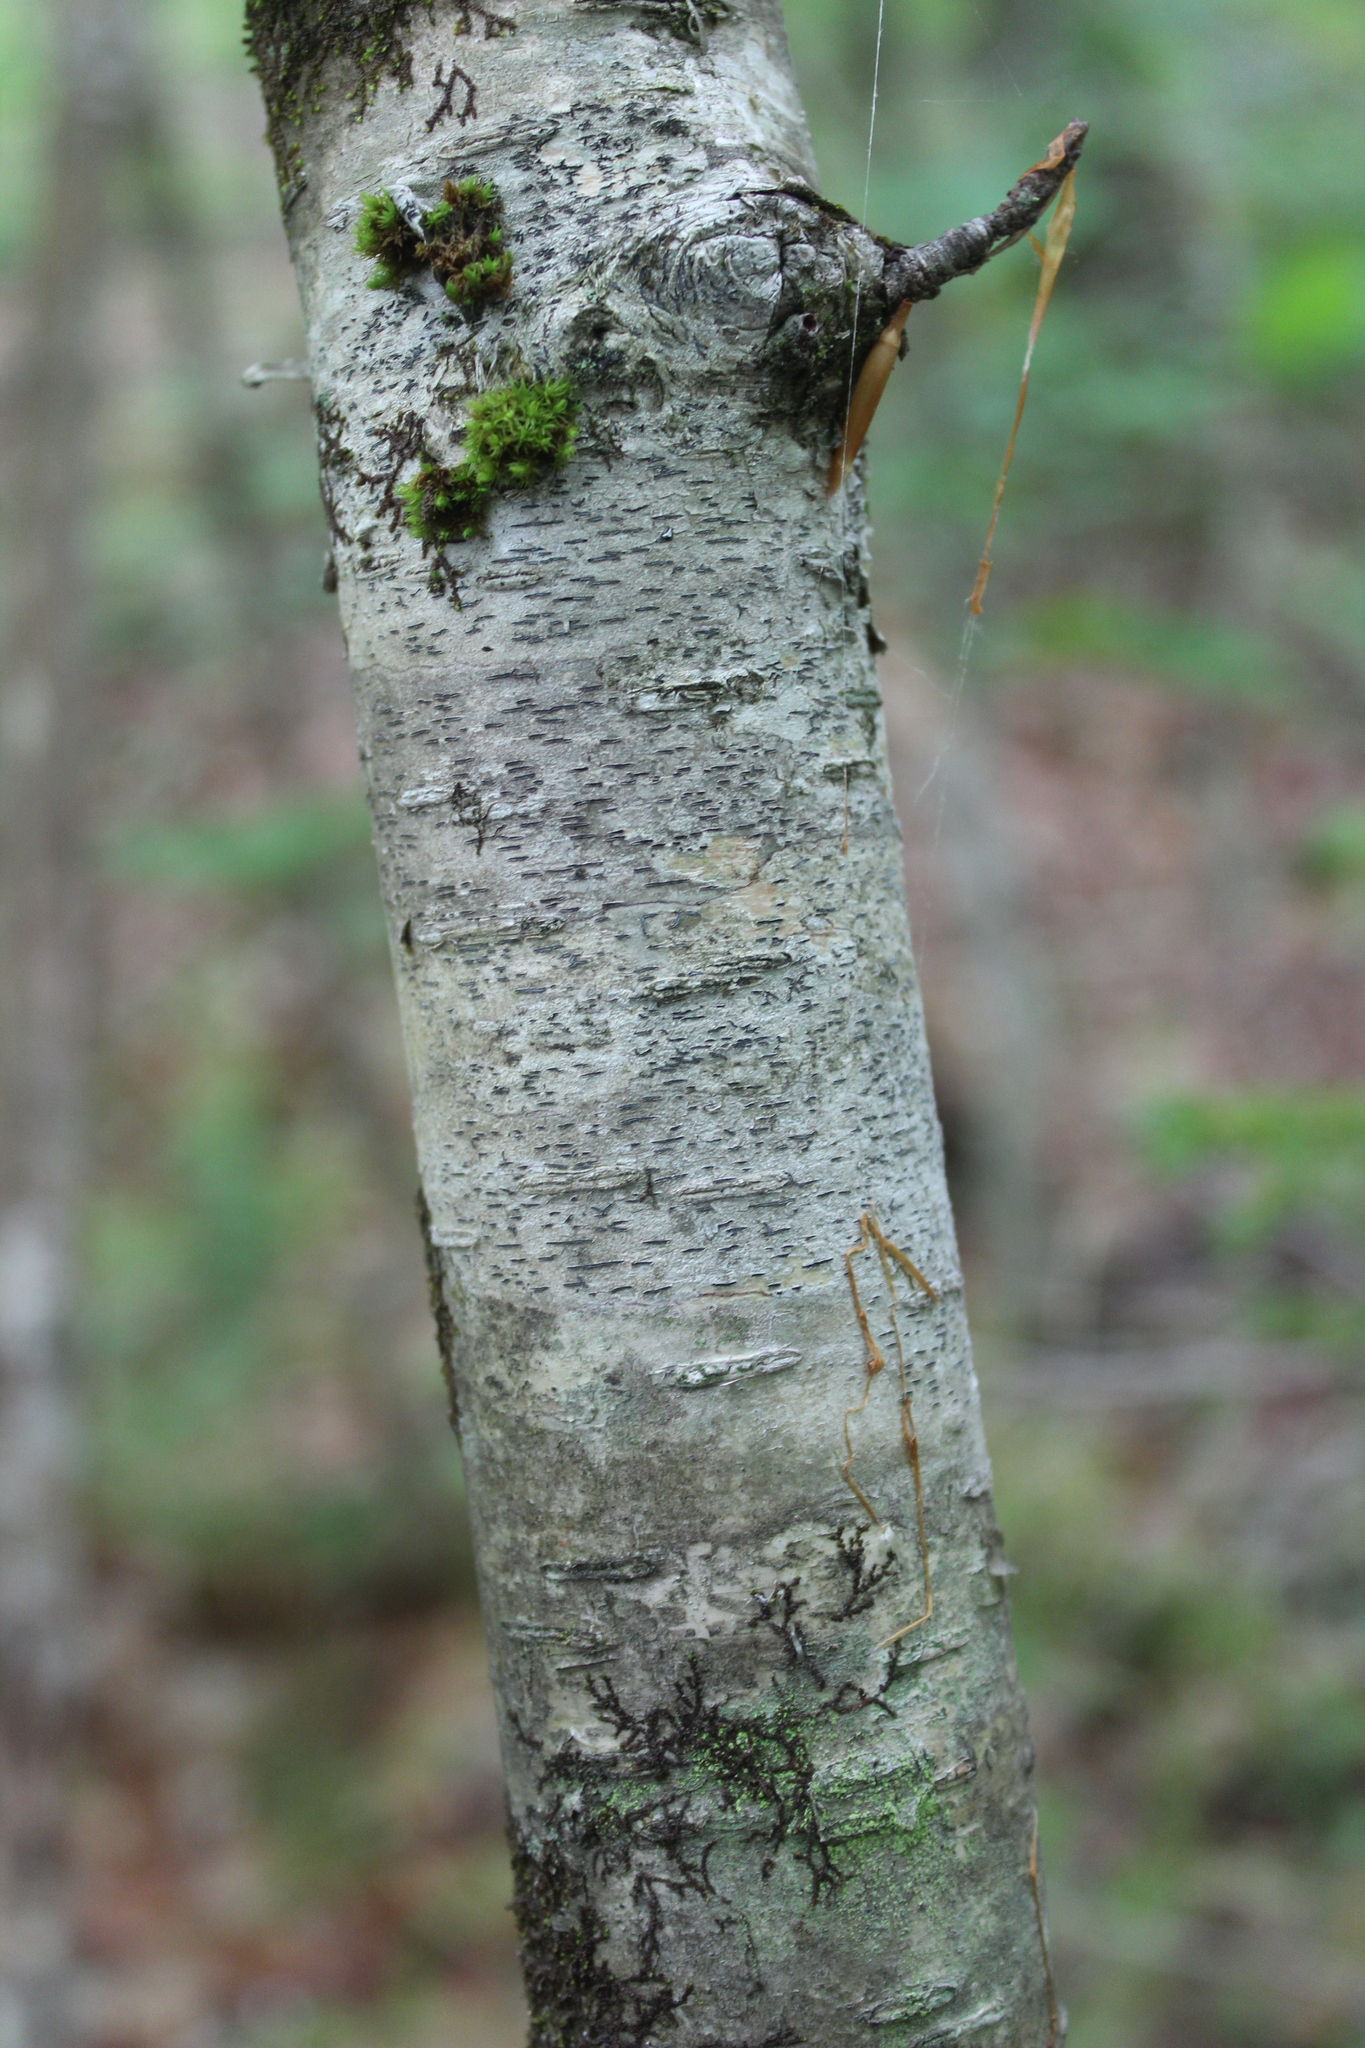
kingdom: Fungi
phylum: Ascomycota
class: Lecanoromycetes
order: Ostropales
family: Graphidaceae
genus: Graphis
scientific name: Graphis scripta
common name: Script lichen
